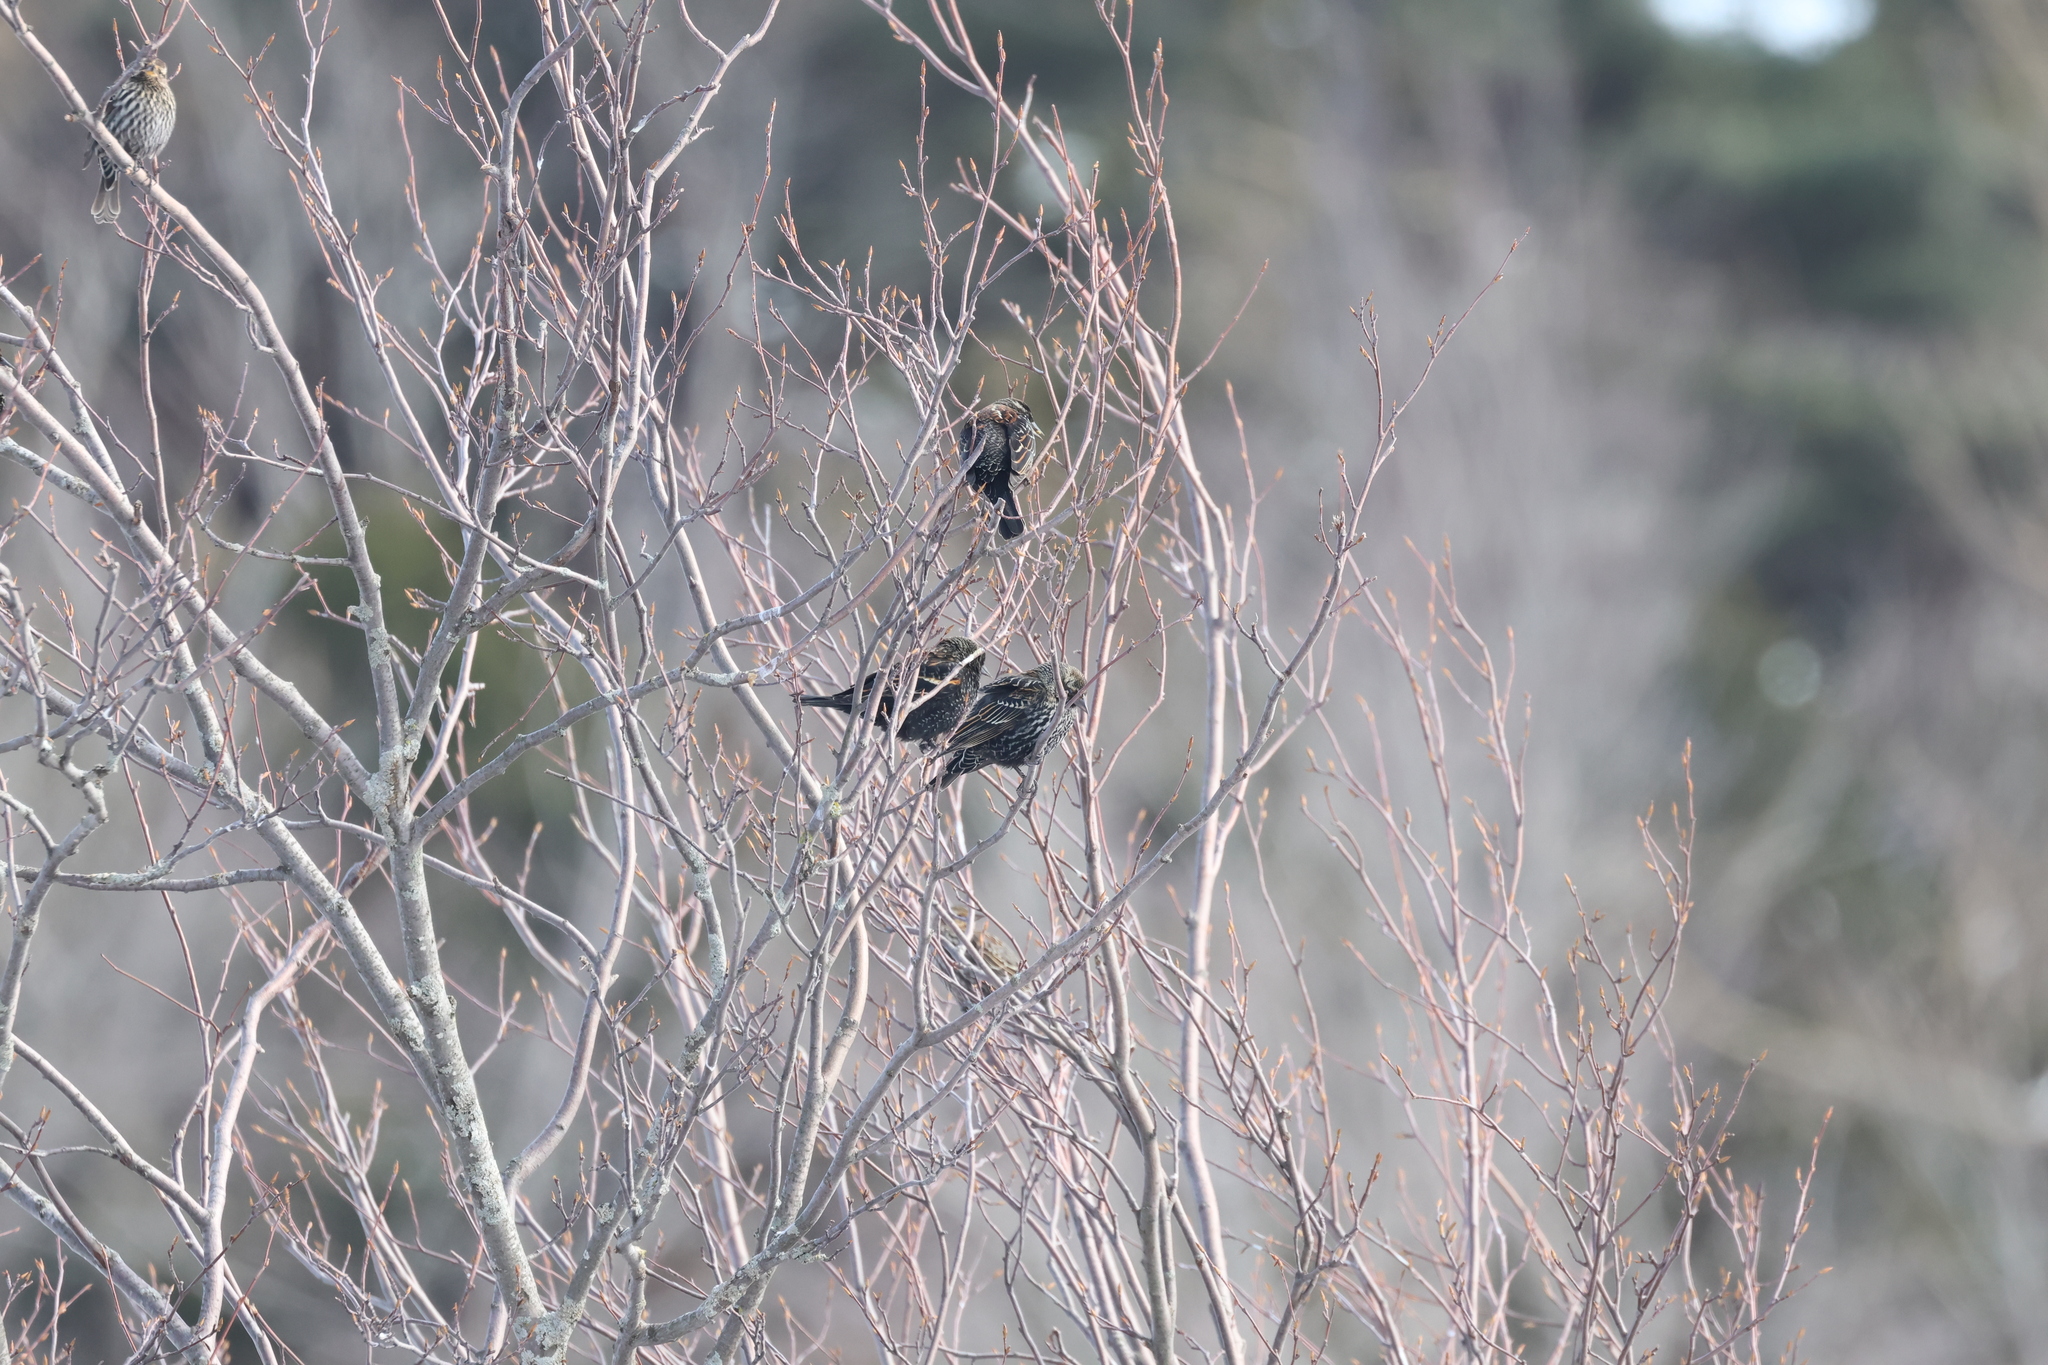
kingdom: Animalia
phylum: Chordata
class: Aves
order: Passeriformes
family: Icteridae
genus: Agelaius
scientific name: Agelaius phoeniceus
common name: Red-winged blackbird
